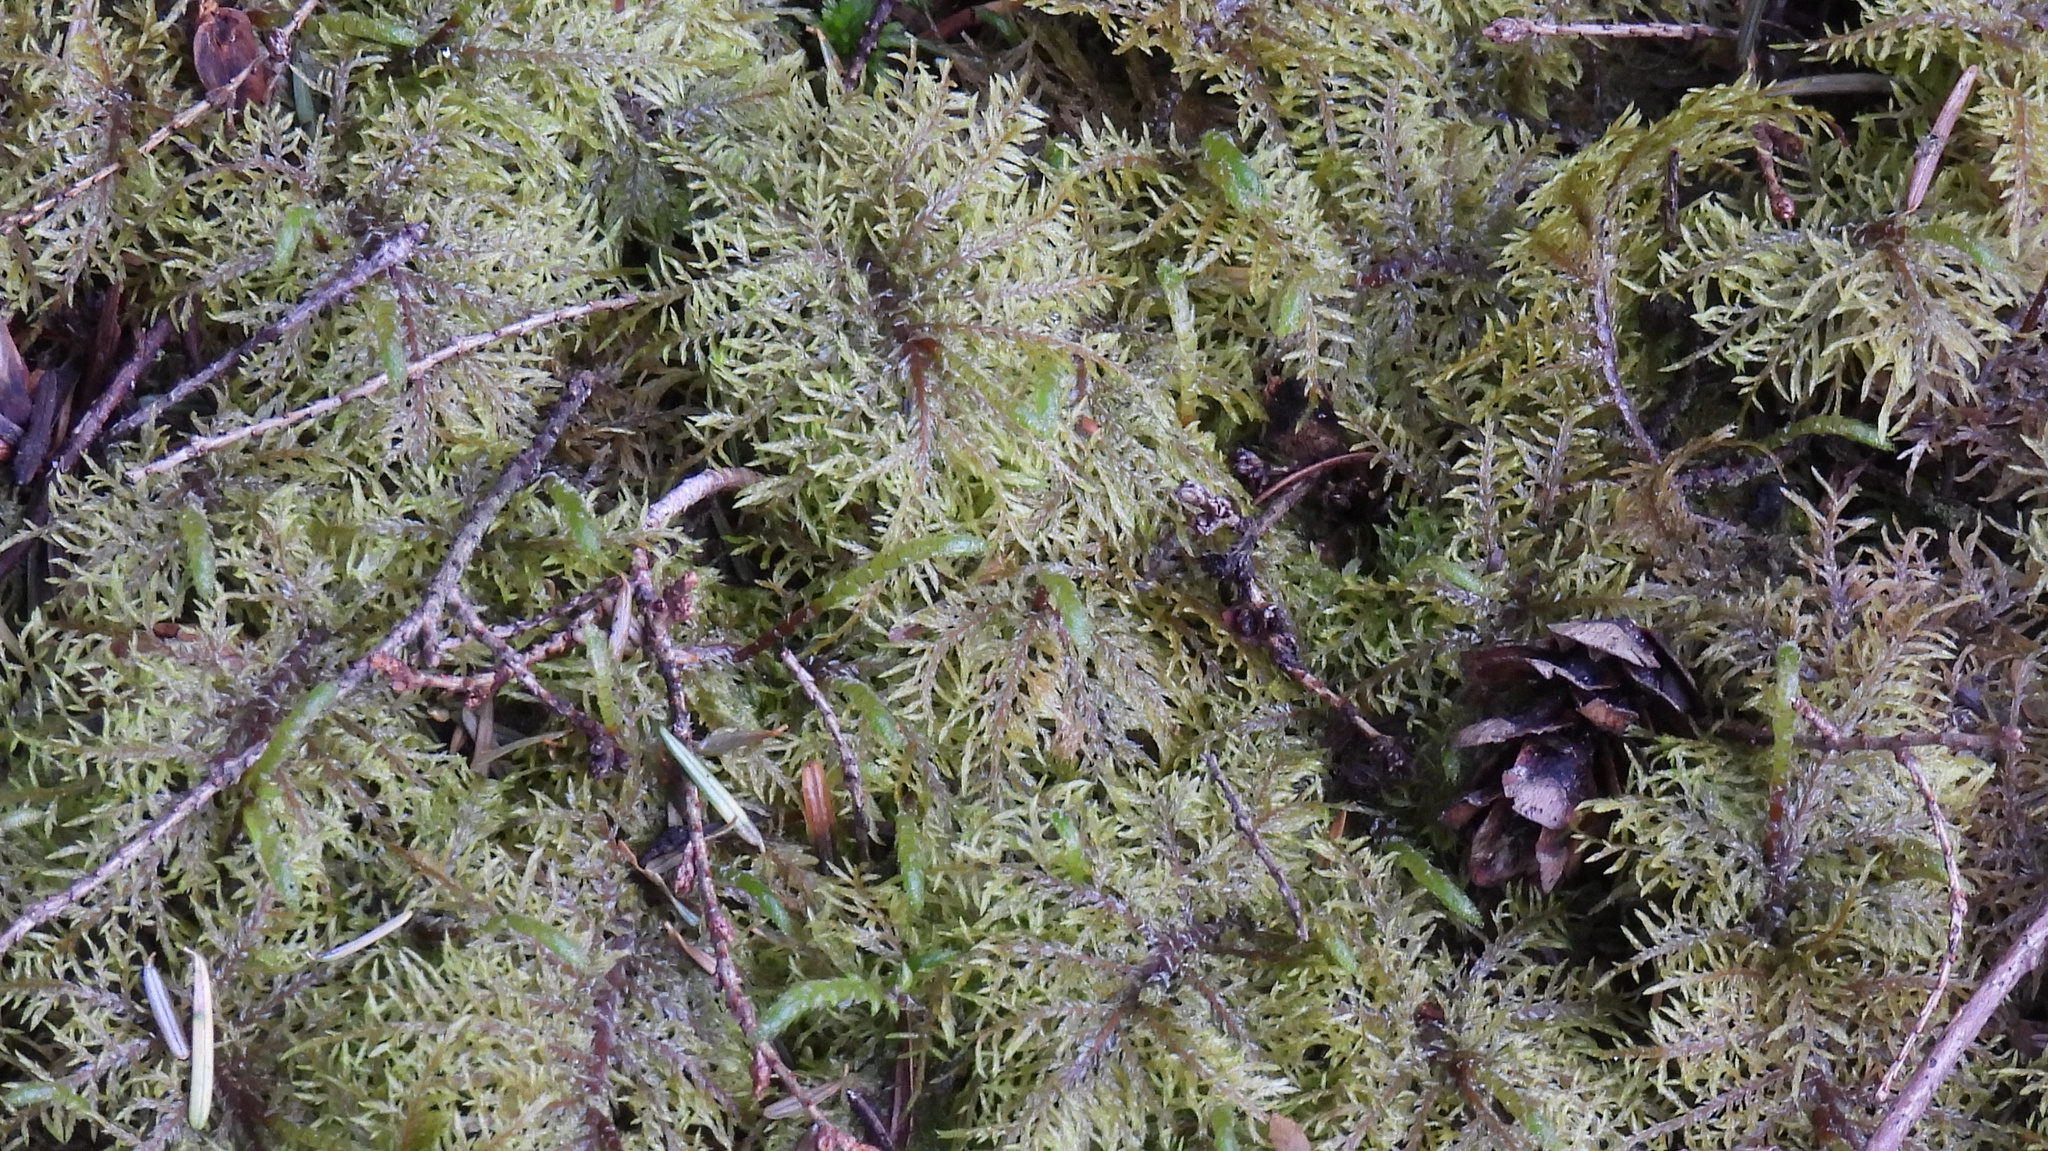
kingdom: Plantae
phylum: Bryophyta
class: Bryopsida
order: Hypnales
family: Hylocomiaceae
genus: Hylocomium
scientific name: Hylocomium splendens
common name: Stairstep moss
